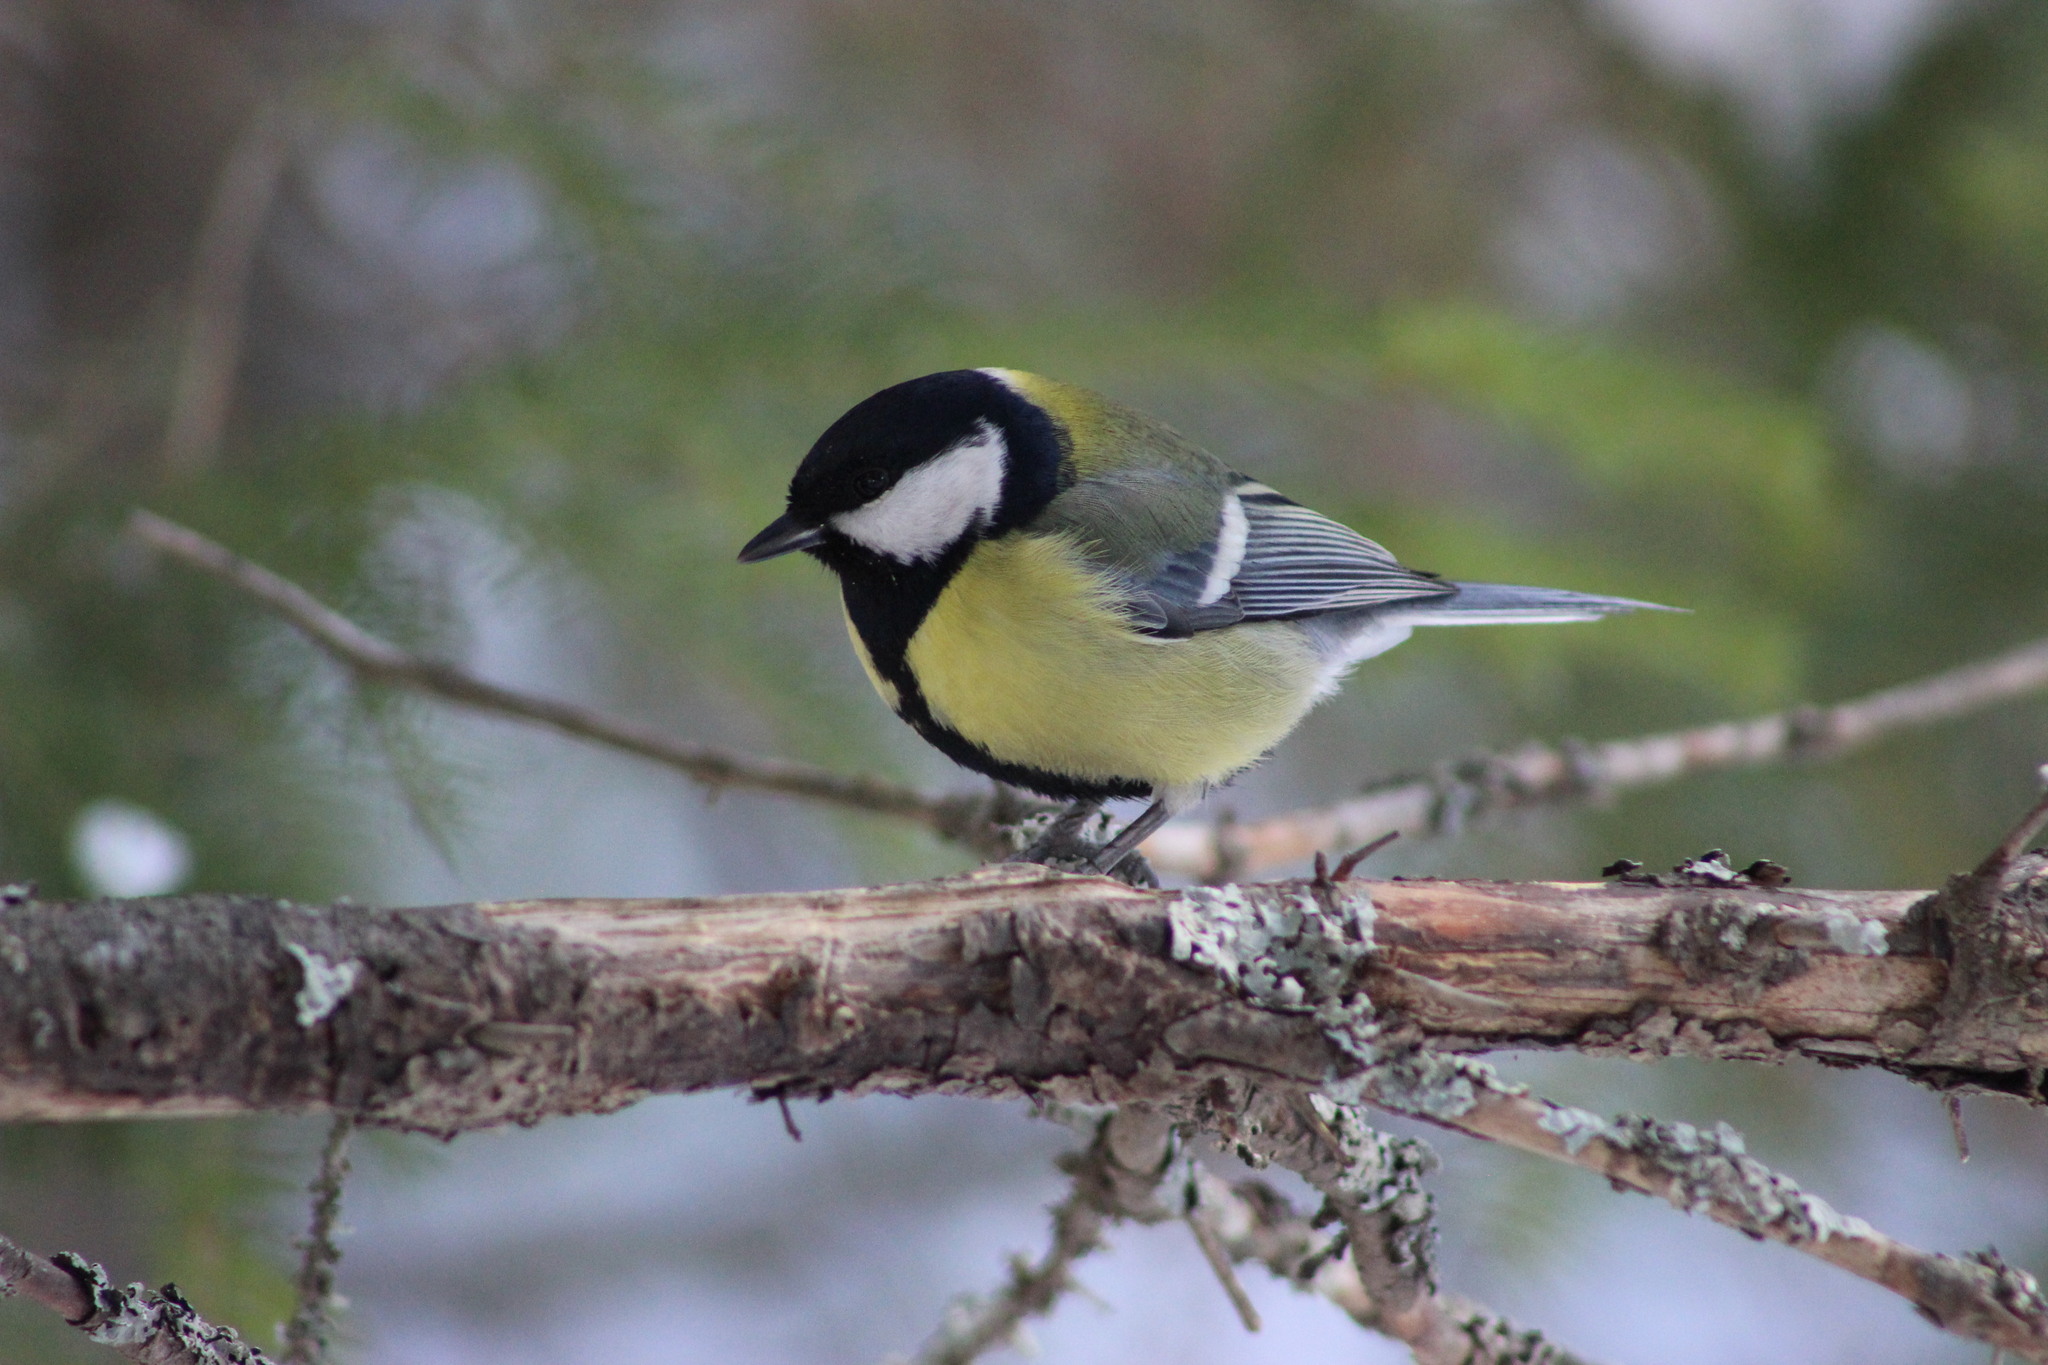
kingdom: Animalia
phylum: Chordata
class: Aves
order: Passeriformes
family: Paridae
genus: Parus
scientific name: Parus major
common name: Great tit
